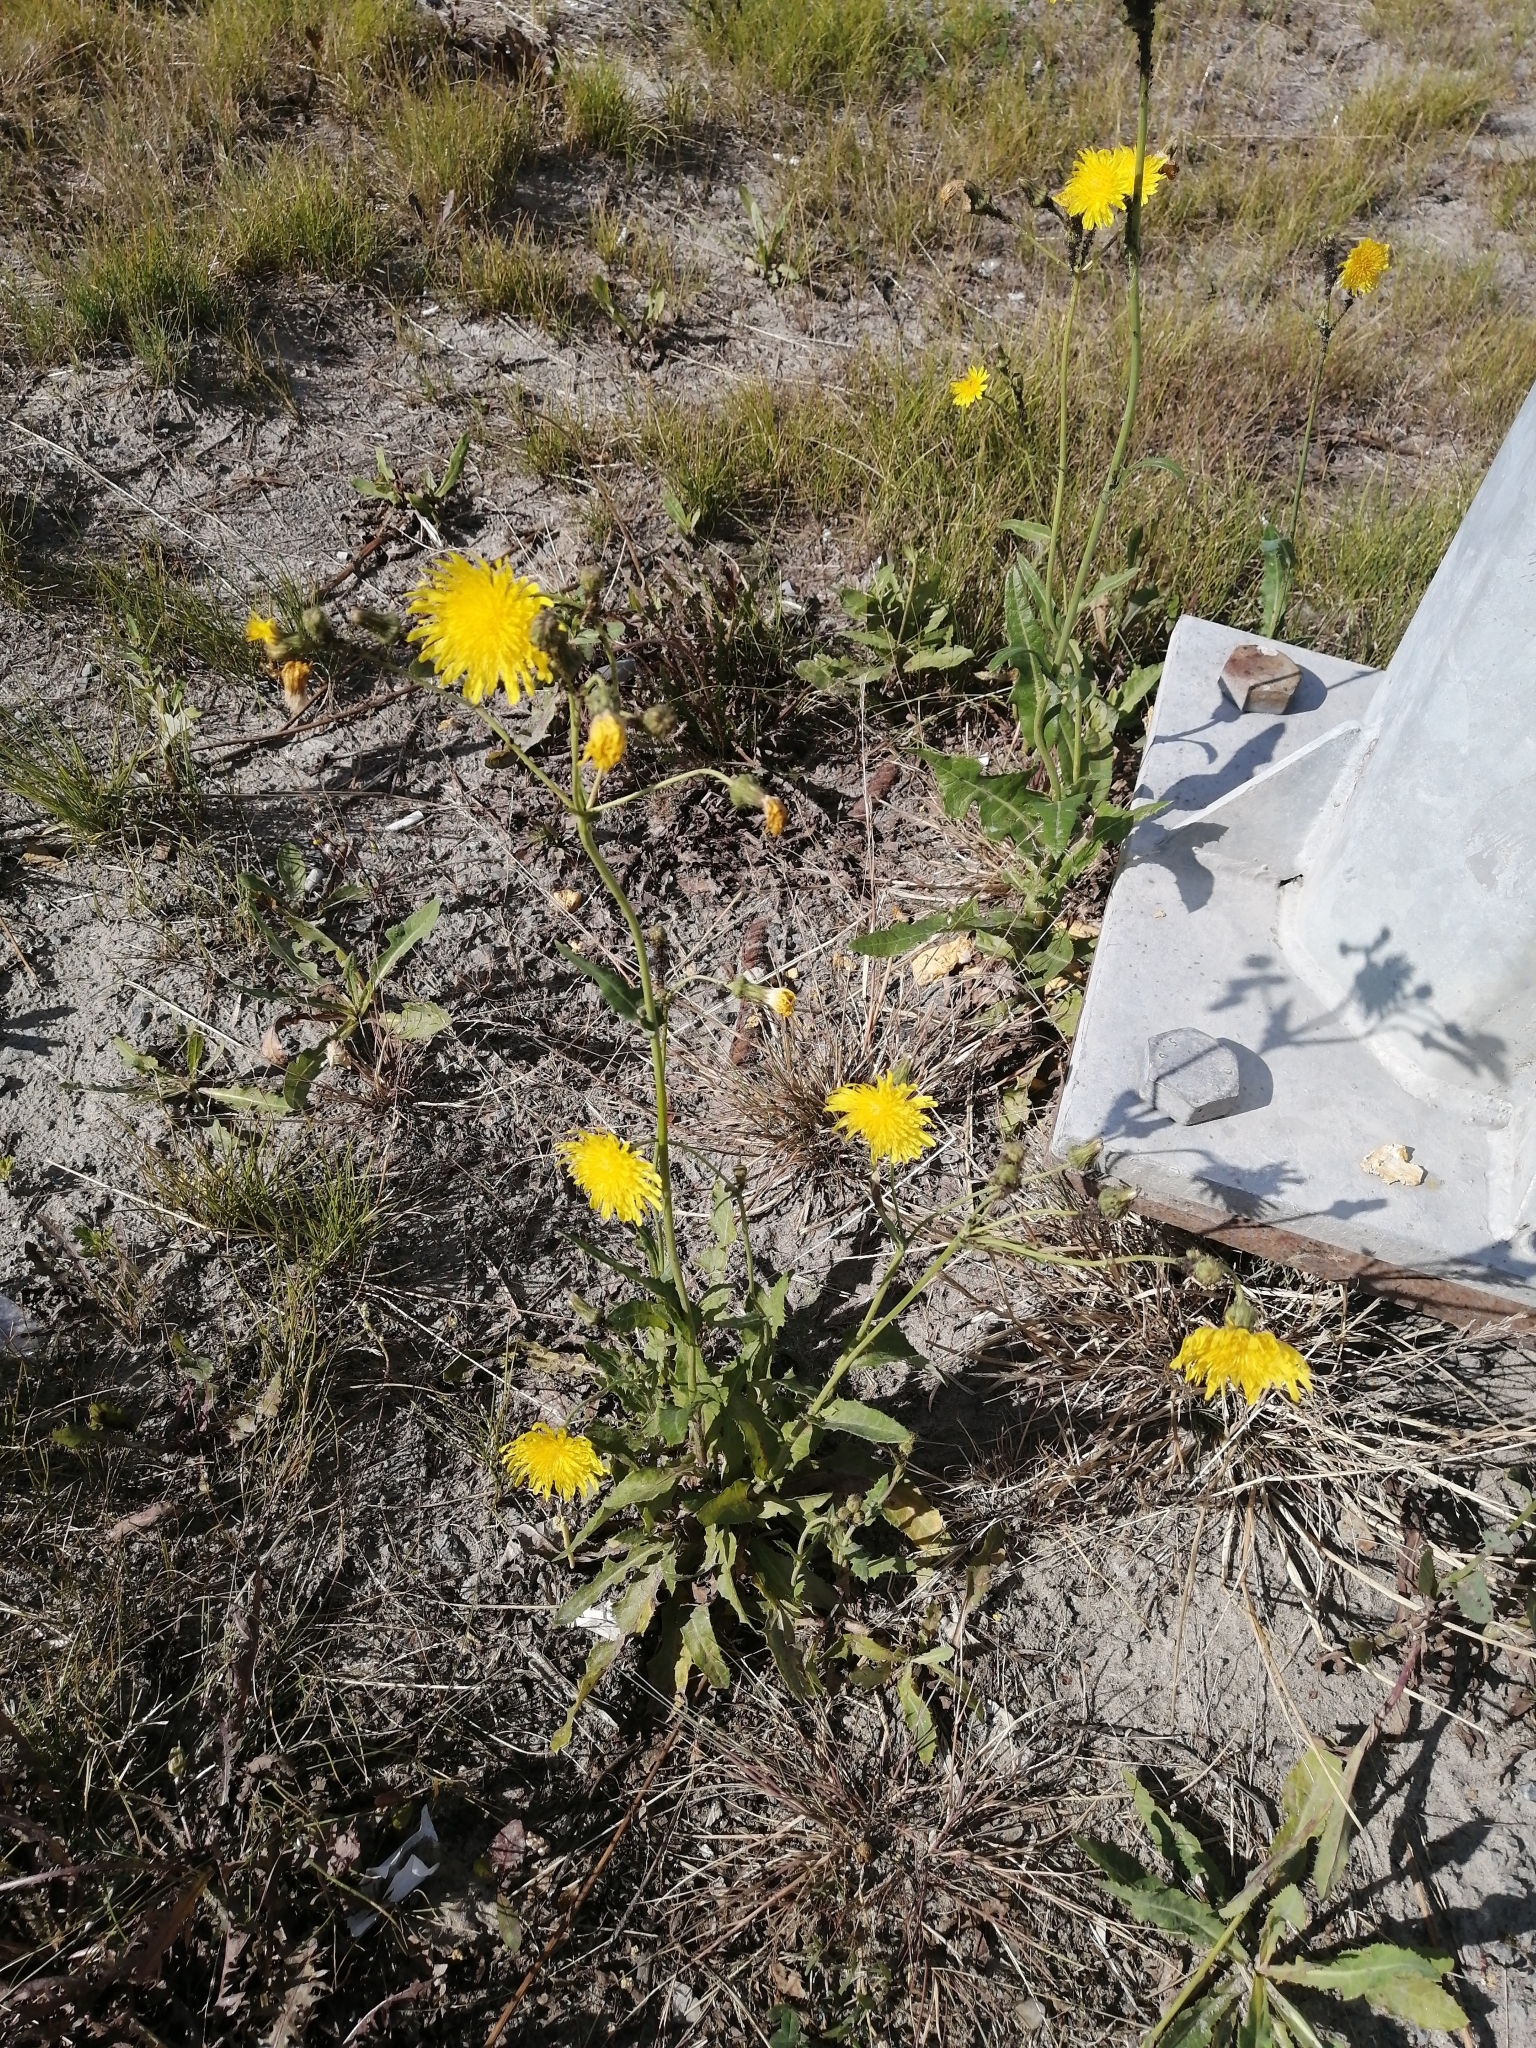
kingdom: Plantae
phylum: Tracheophyta
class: Magnoliopsida
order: Asterales
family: Asteraceae
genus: Sonchus
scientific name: Sonchus arvensis
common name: Perennial sow-thistle
